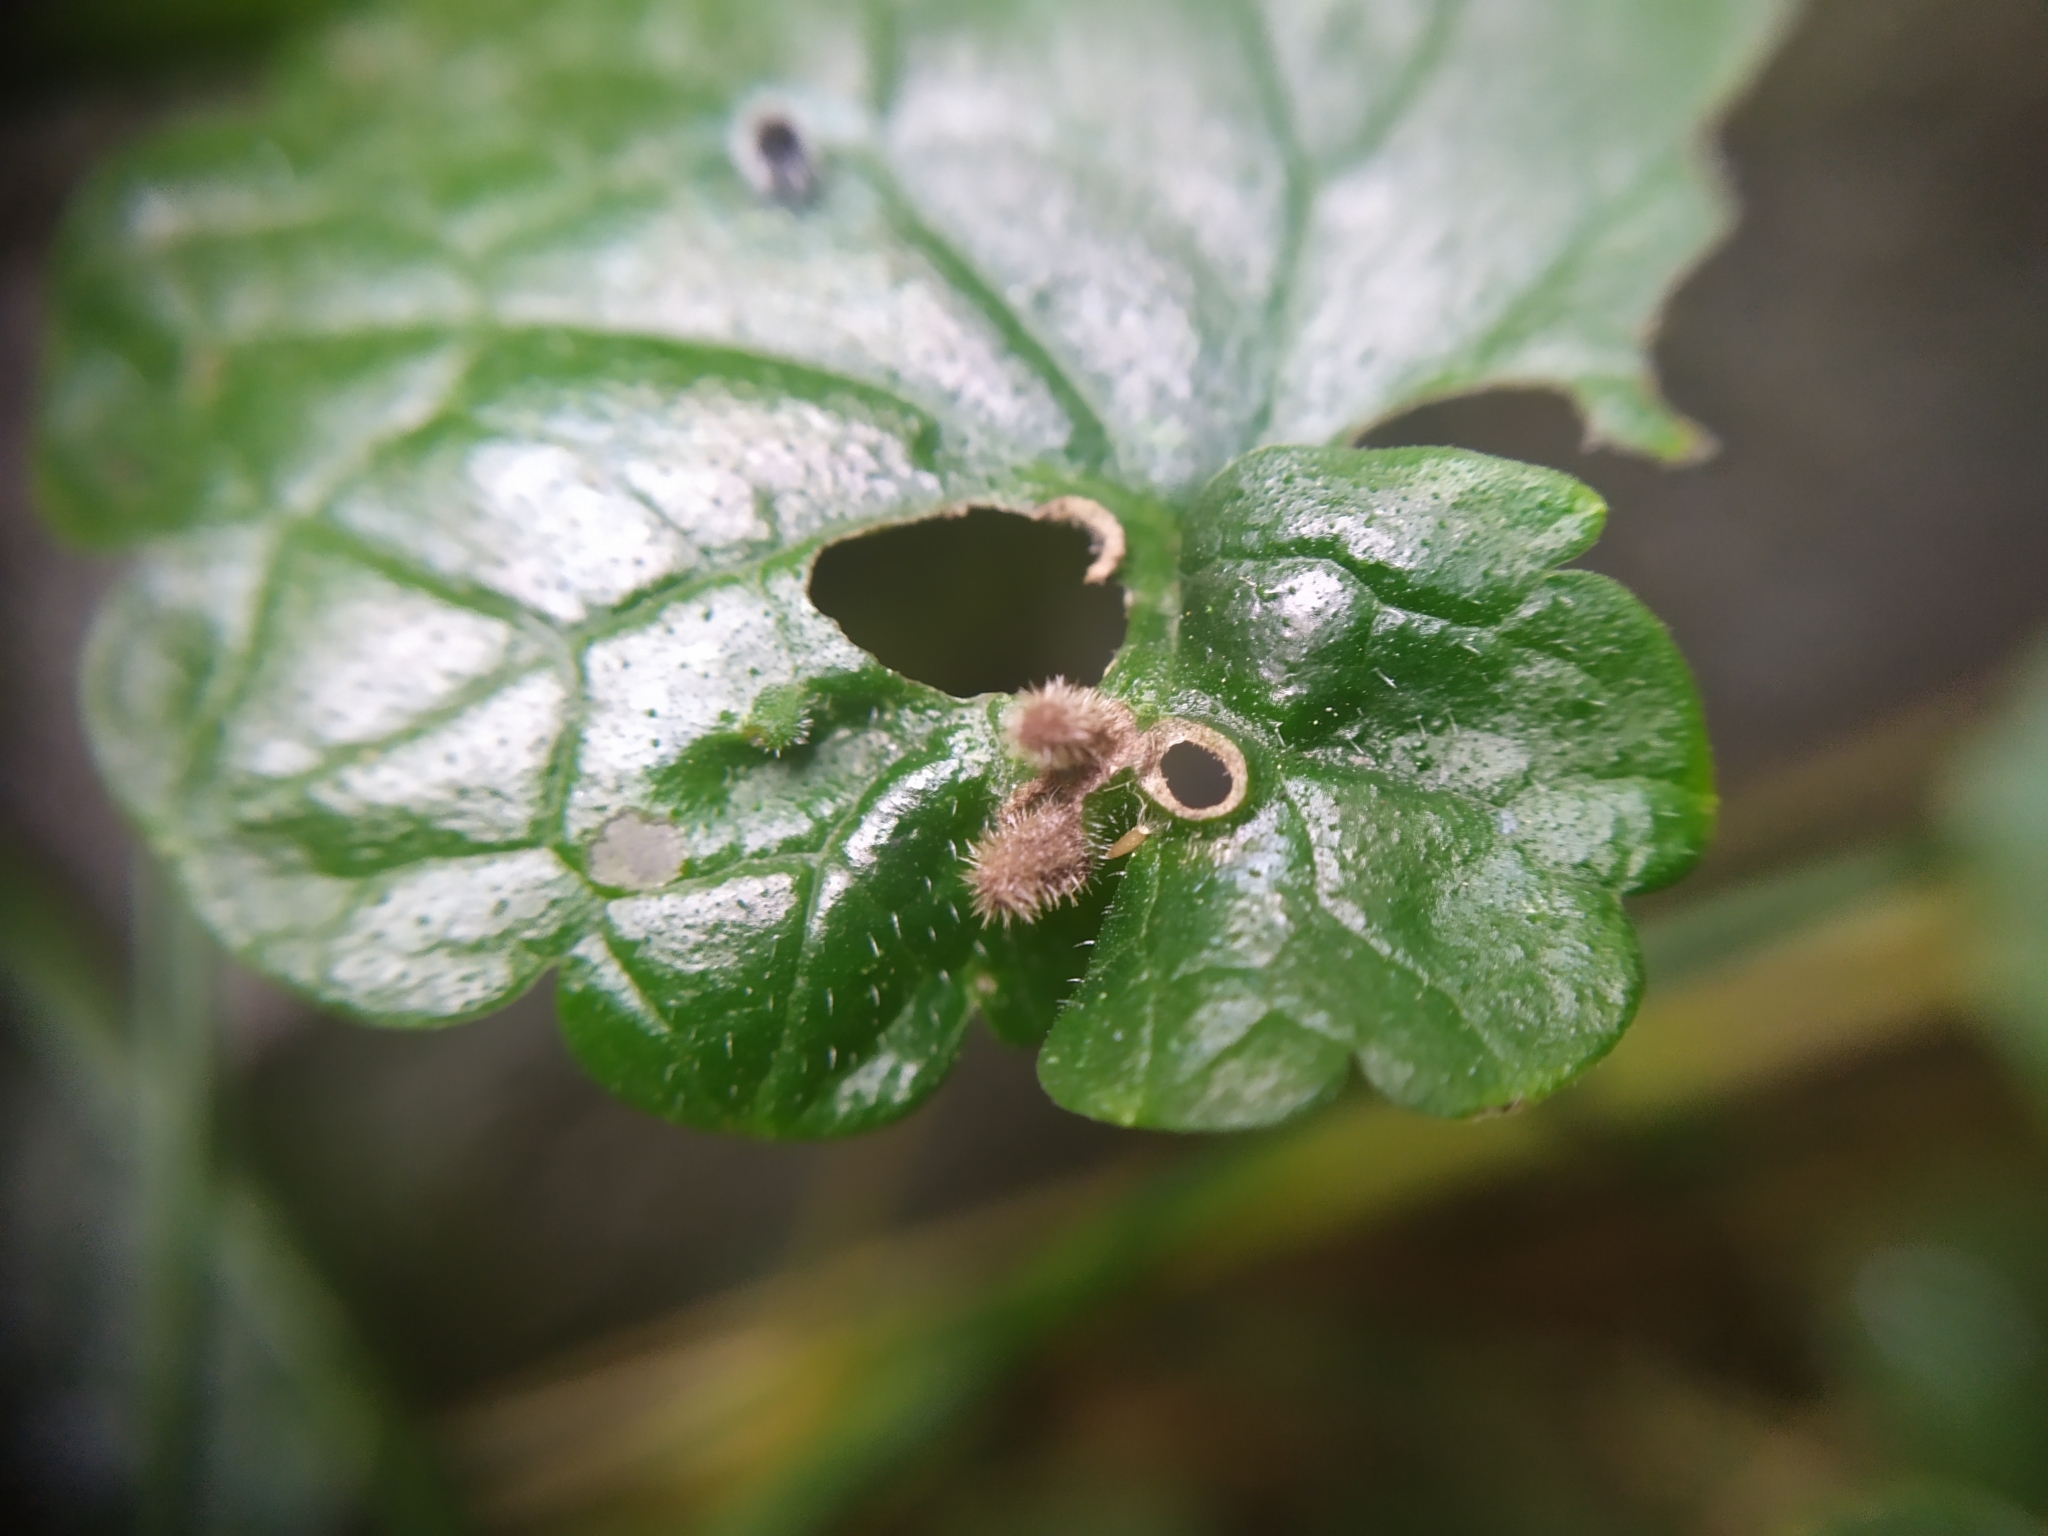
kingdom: Animalia
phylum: Arthropoda
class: Insecta
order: Diptera
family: Cecidomyiidae
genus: Rondaniola
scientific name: Rondaniola bursaria
